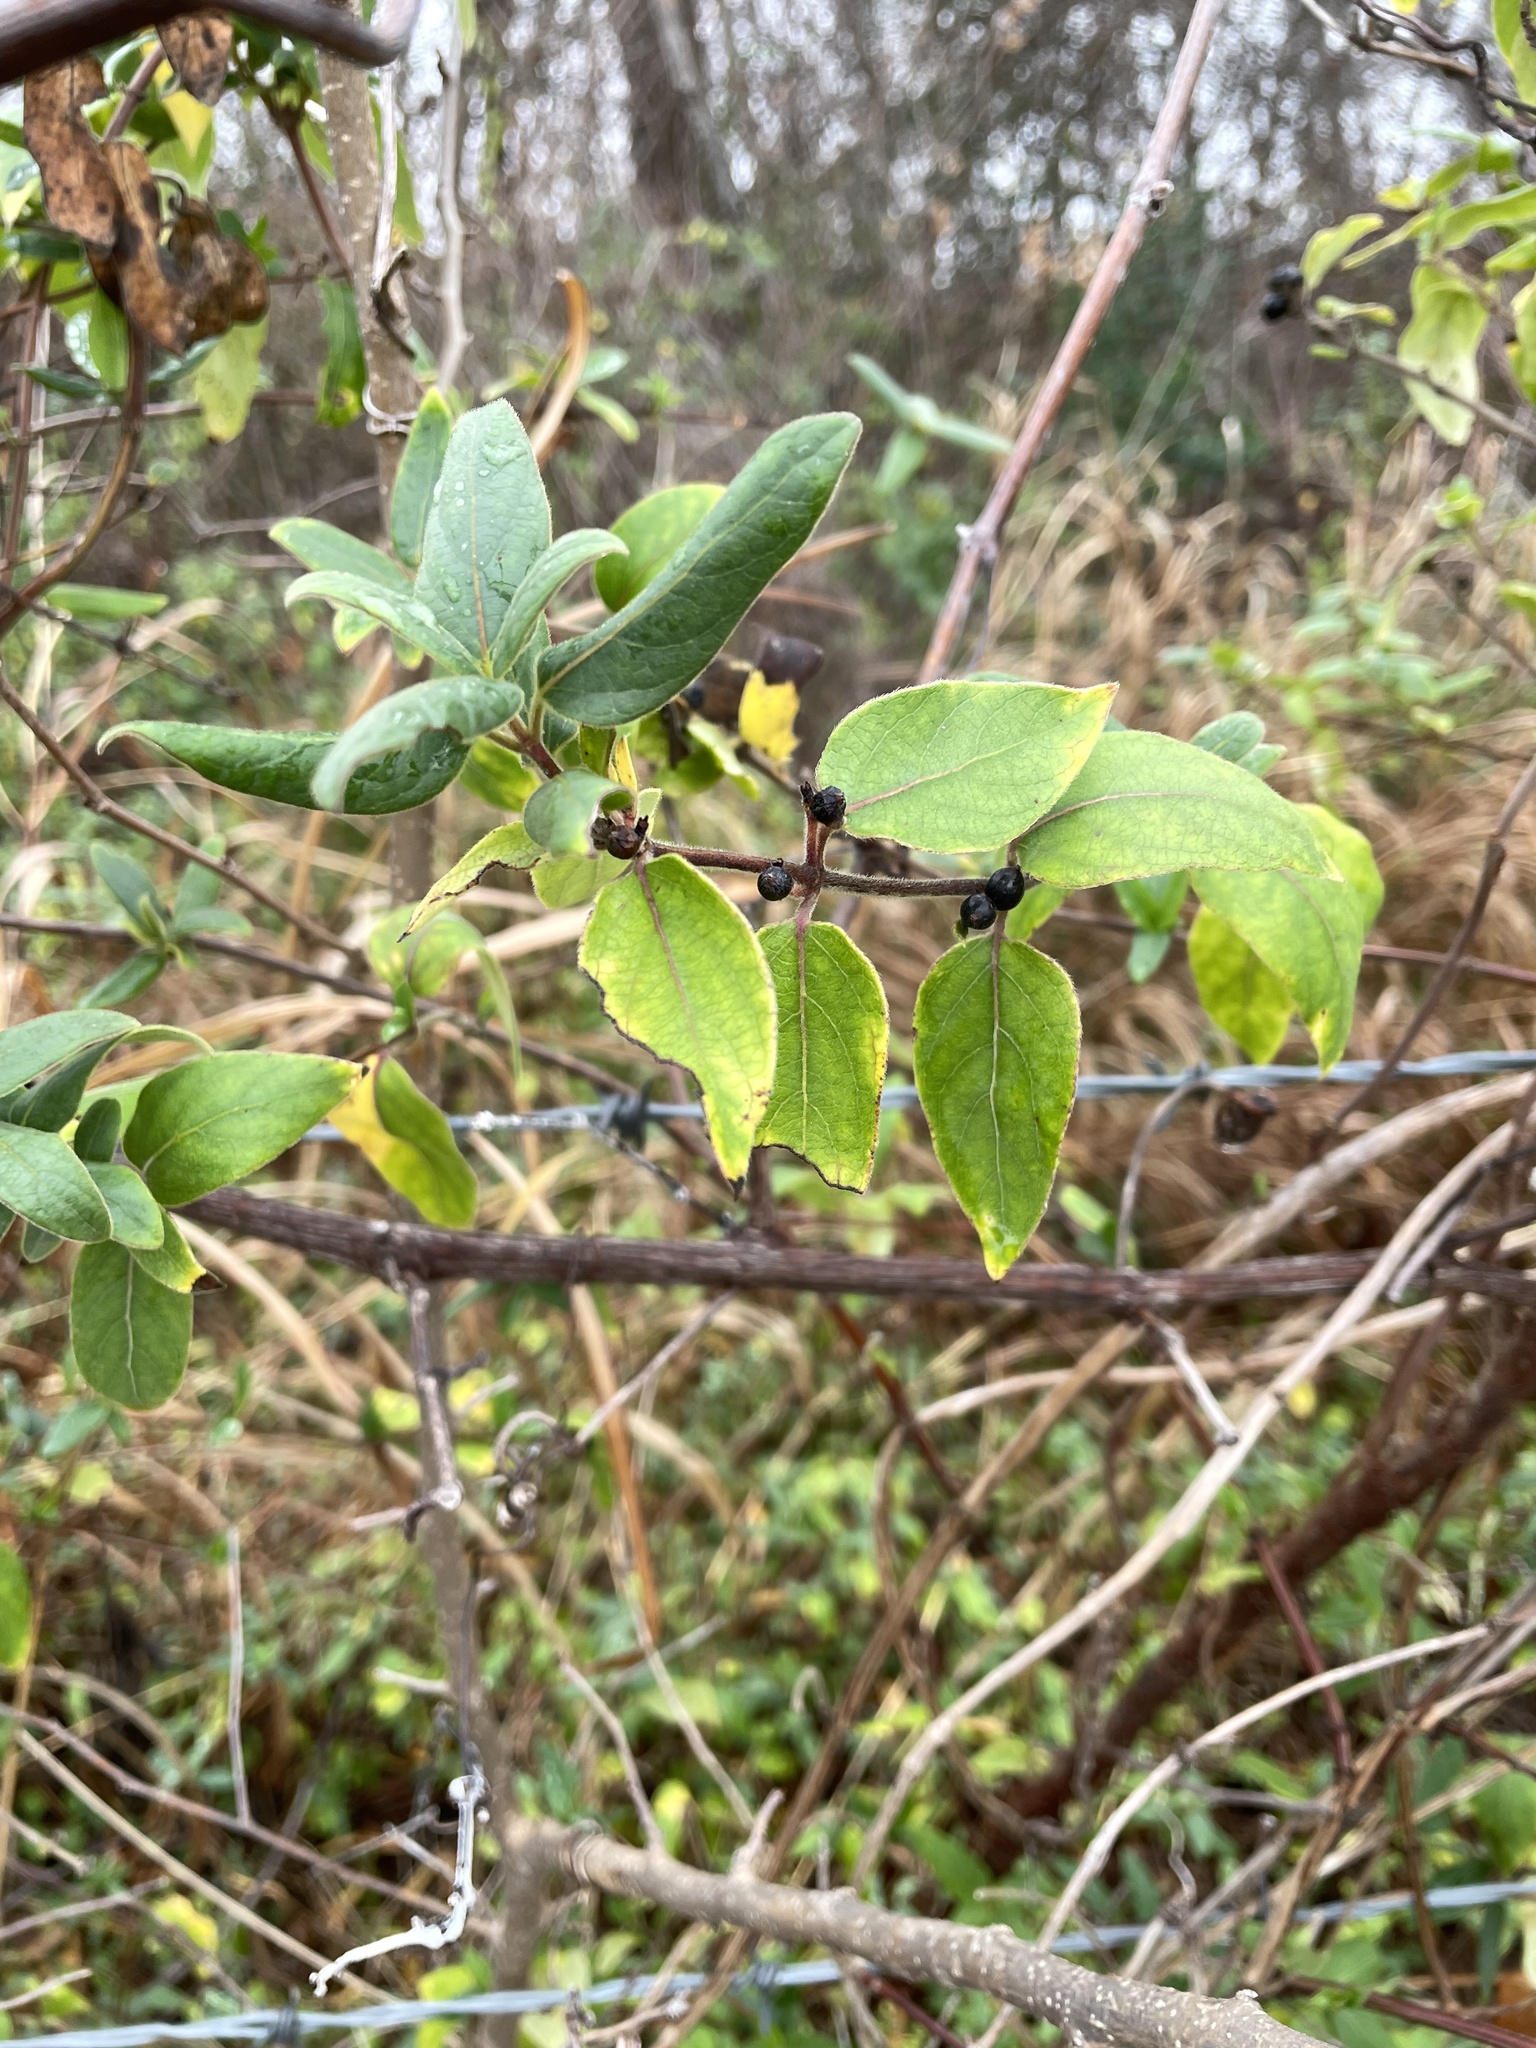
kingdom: Plantae
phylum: Tracheophyta
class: Magnoliopsida
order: Dipsacales
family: Caprifoliaceae
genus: Lonicera
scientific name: Lonicera japonica
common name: Japanese honeysuckle
